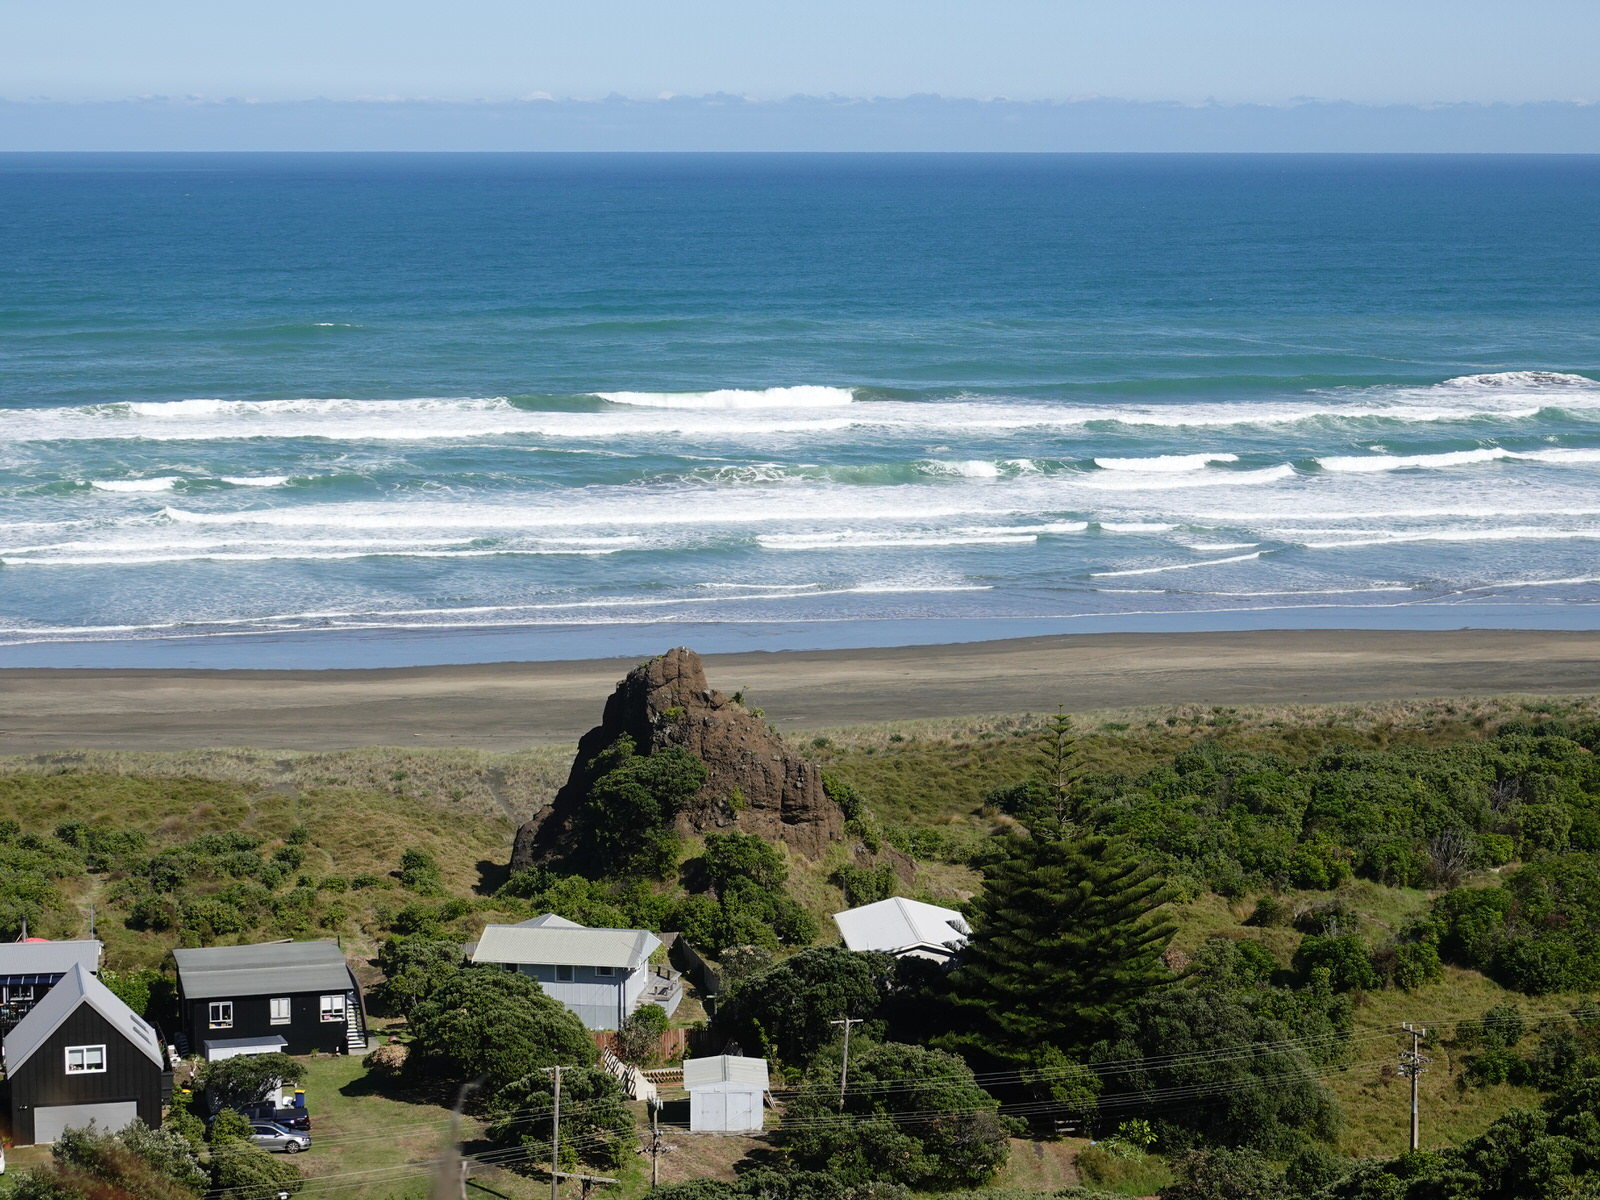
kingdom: Animalia
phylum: Chordata
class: Aves
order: Charadriiformes
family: Laridae
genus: Larus
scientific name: Larus dominicanus
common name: Kelp gull
